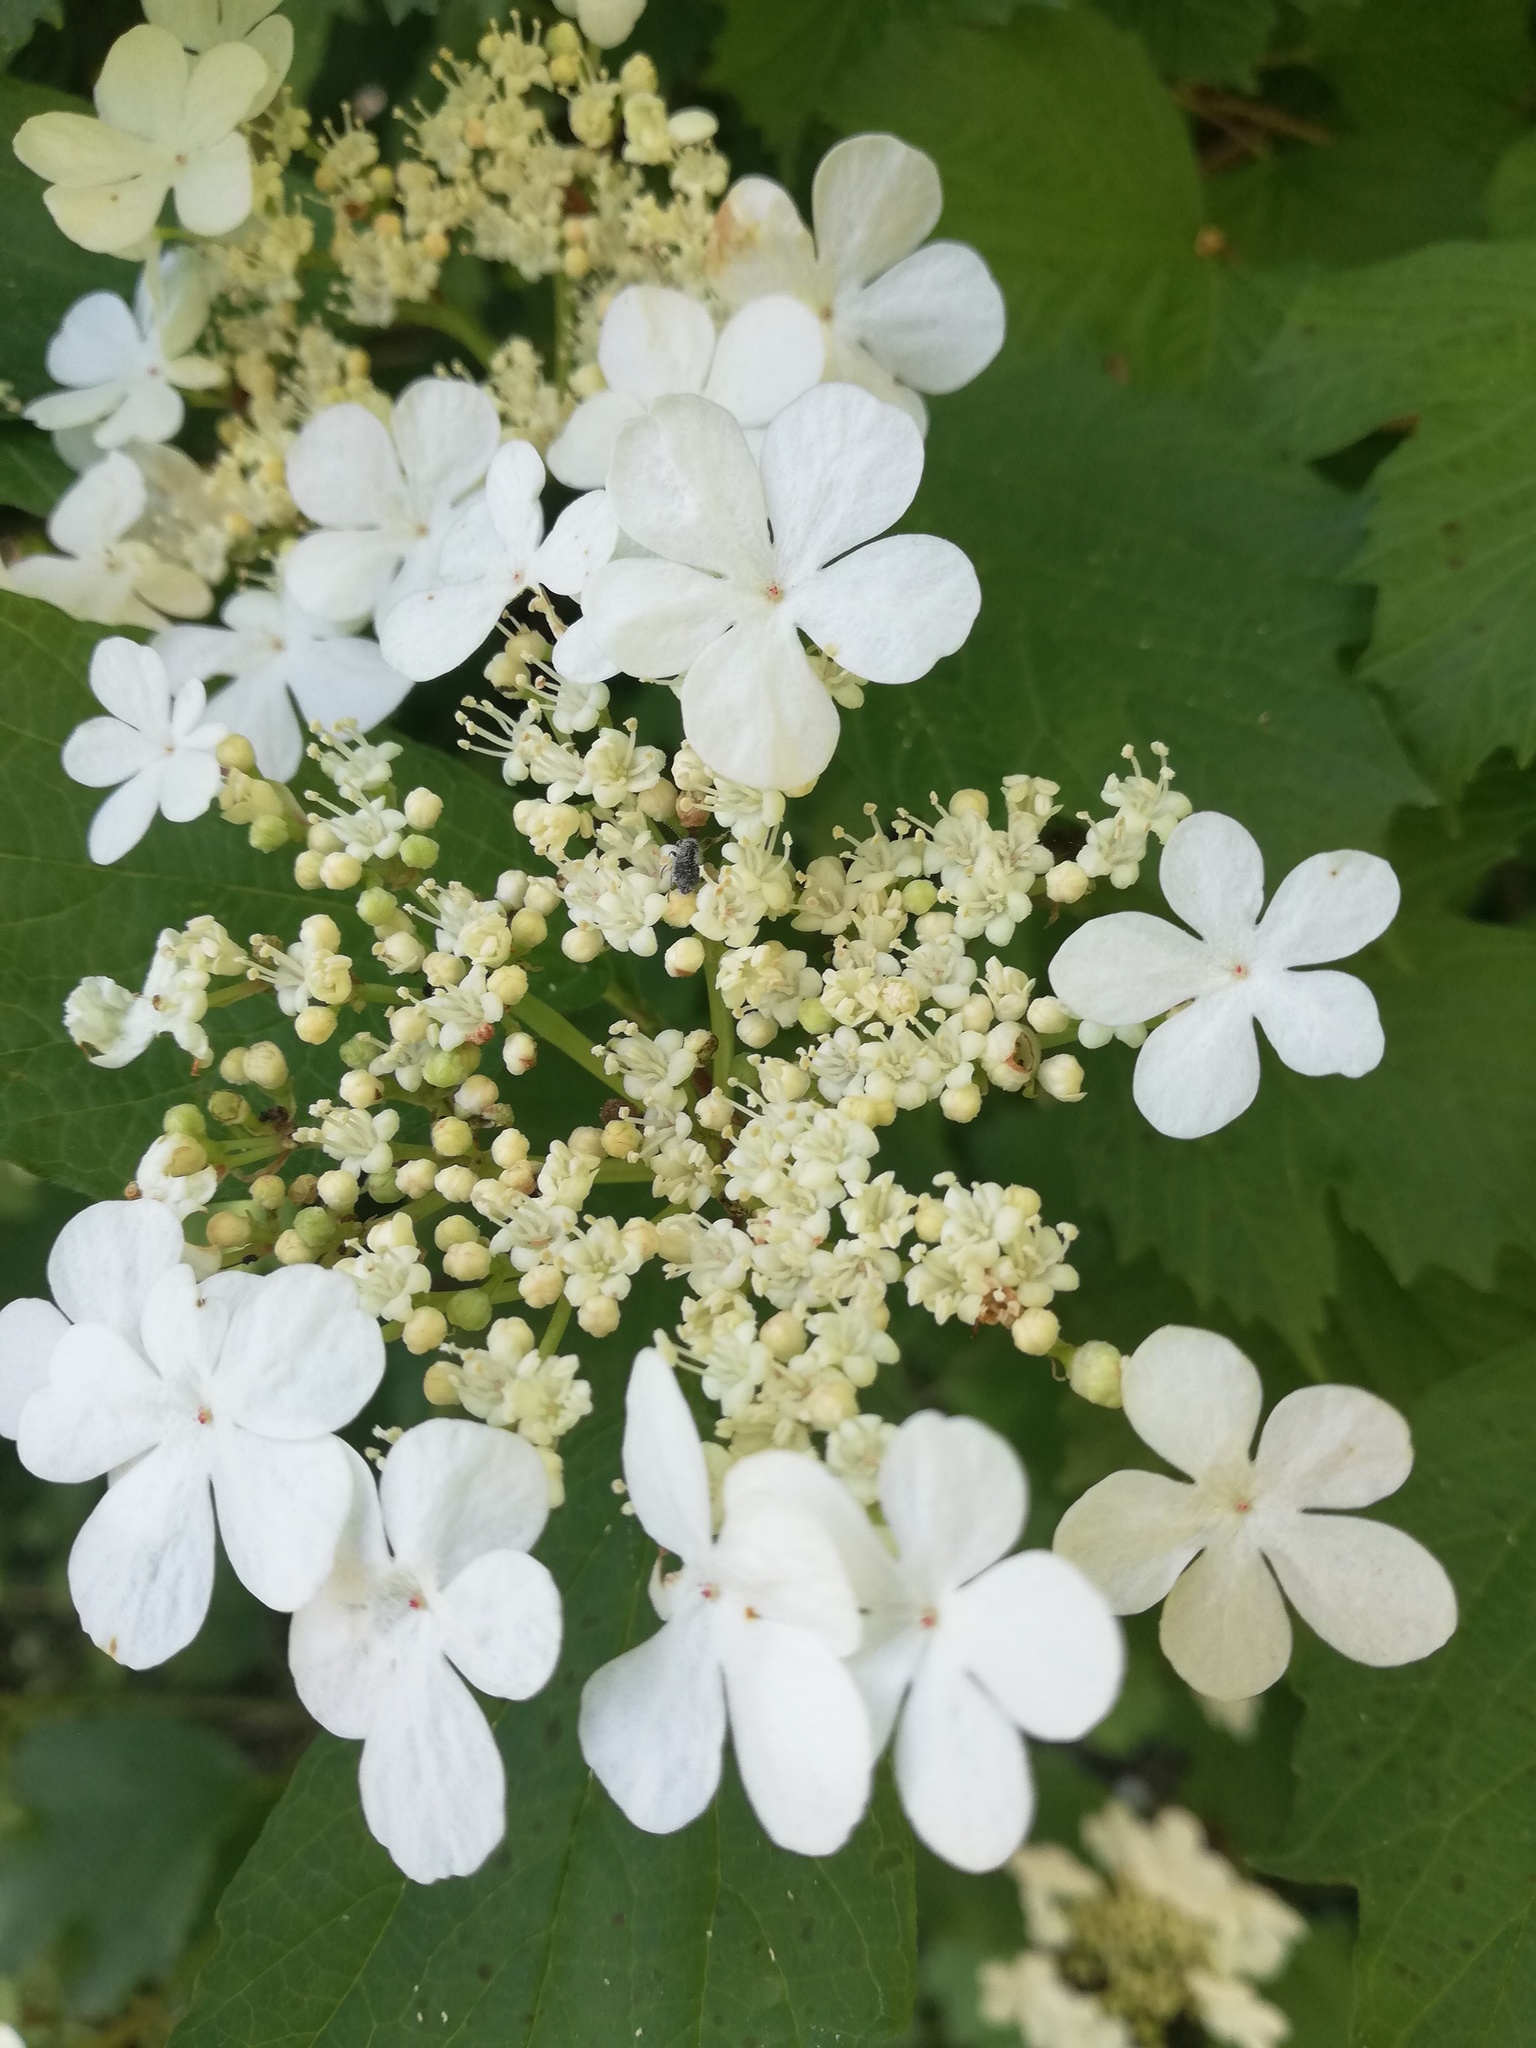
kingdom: Plantae
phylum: Tracheophyta
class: Magnoliopsida
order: Dipsacales
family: Viburnaceae
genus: Viburnum
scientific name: Viburnum opulus
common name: Guelder-rose
